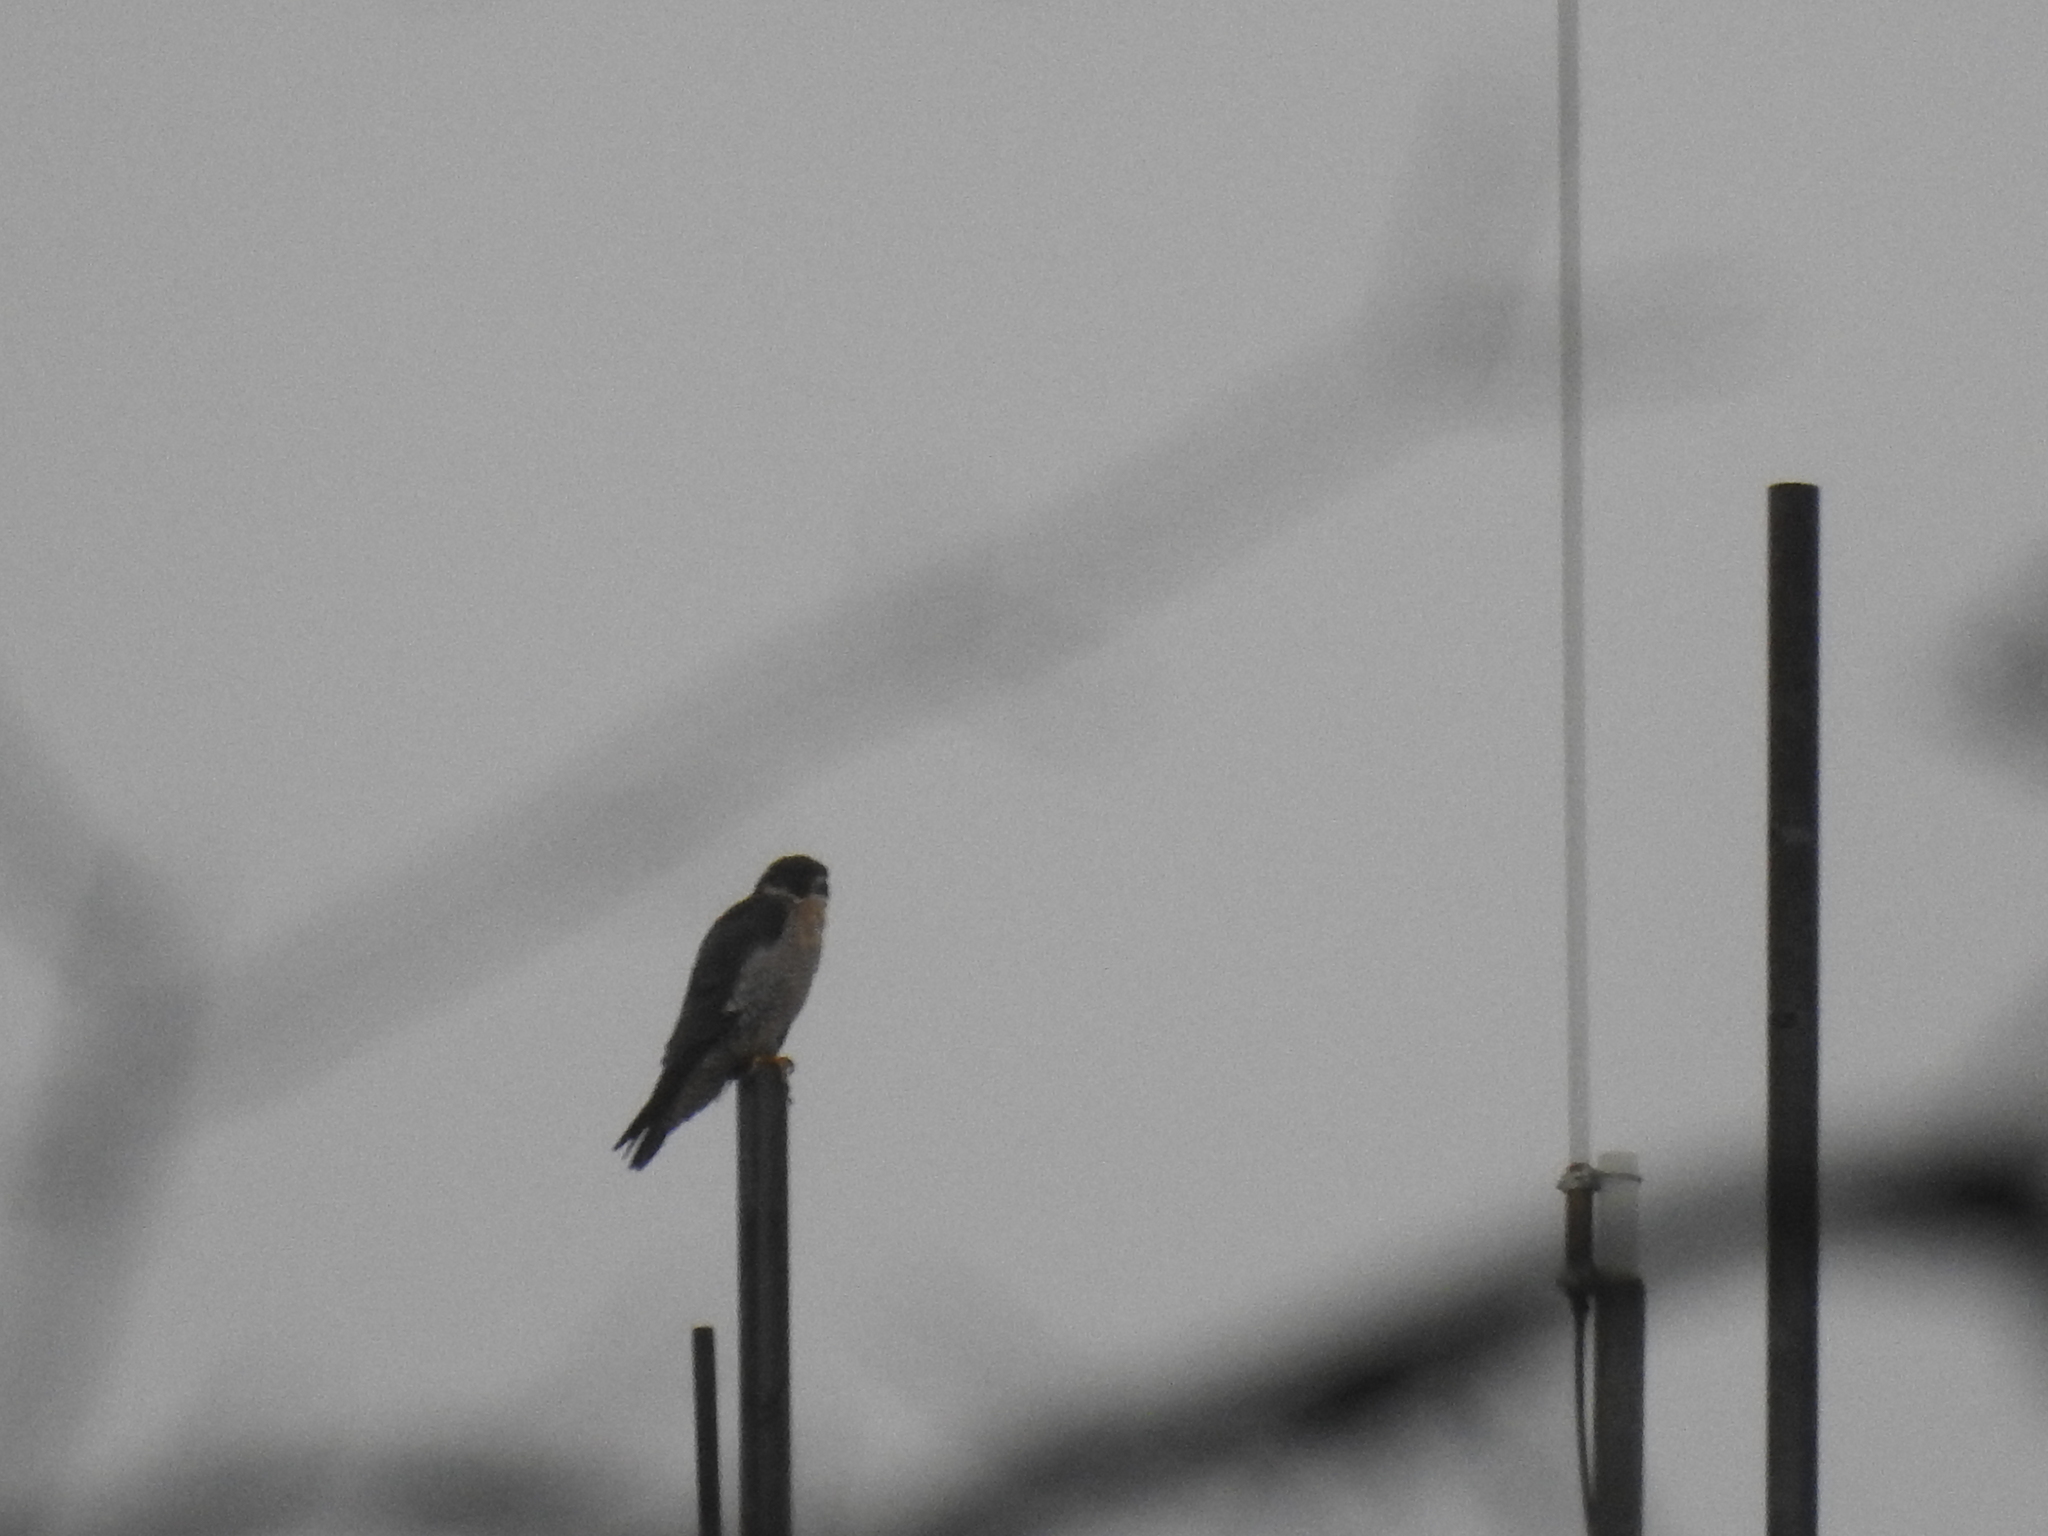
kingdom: Animalia
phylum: Chordata
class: Aves
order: Falconiformes
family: Falconidae
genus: Falco
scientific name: Falco peregrinus
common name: Peregrine falcon
